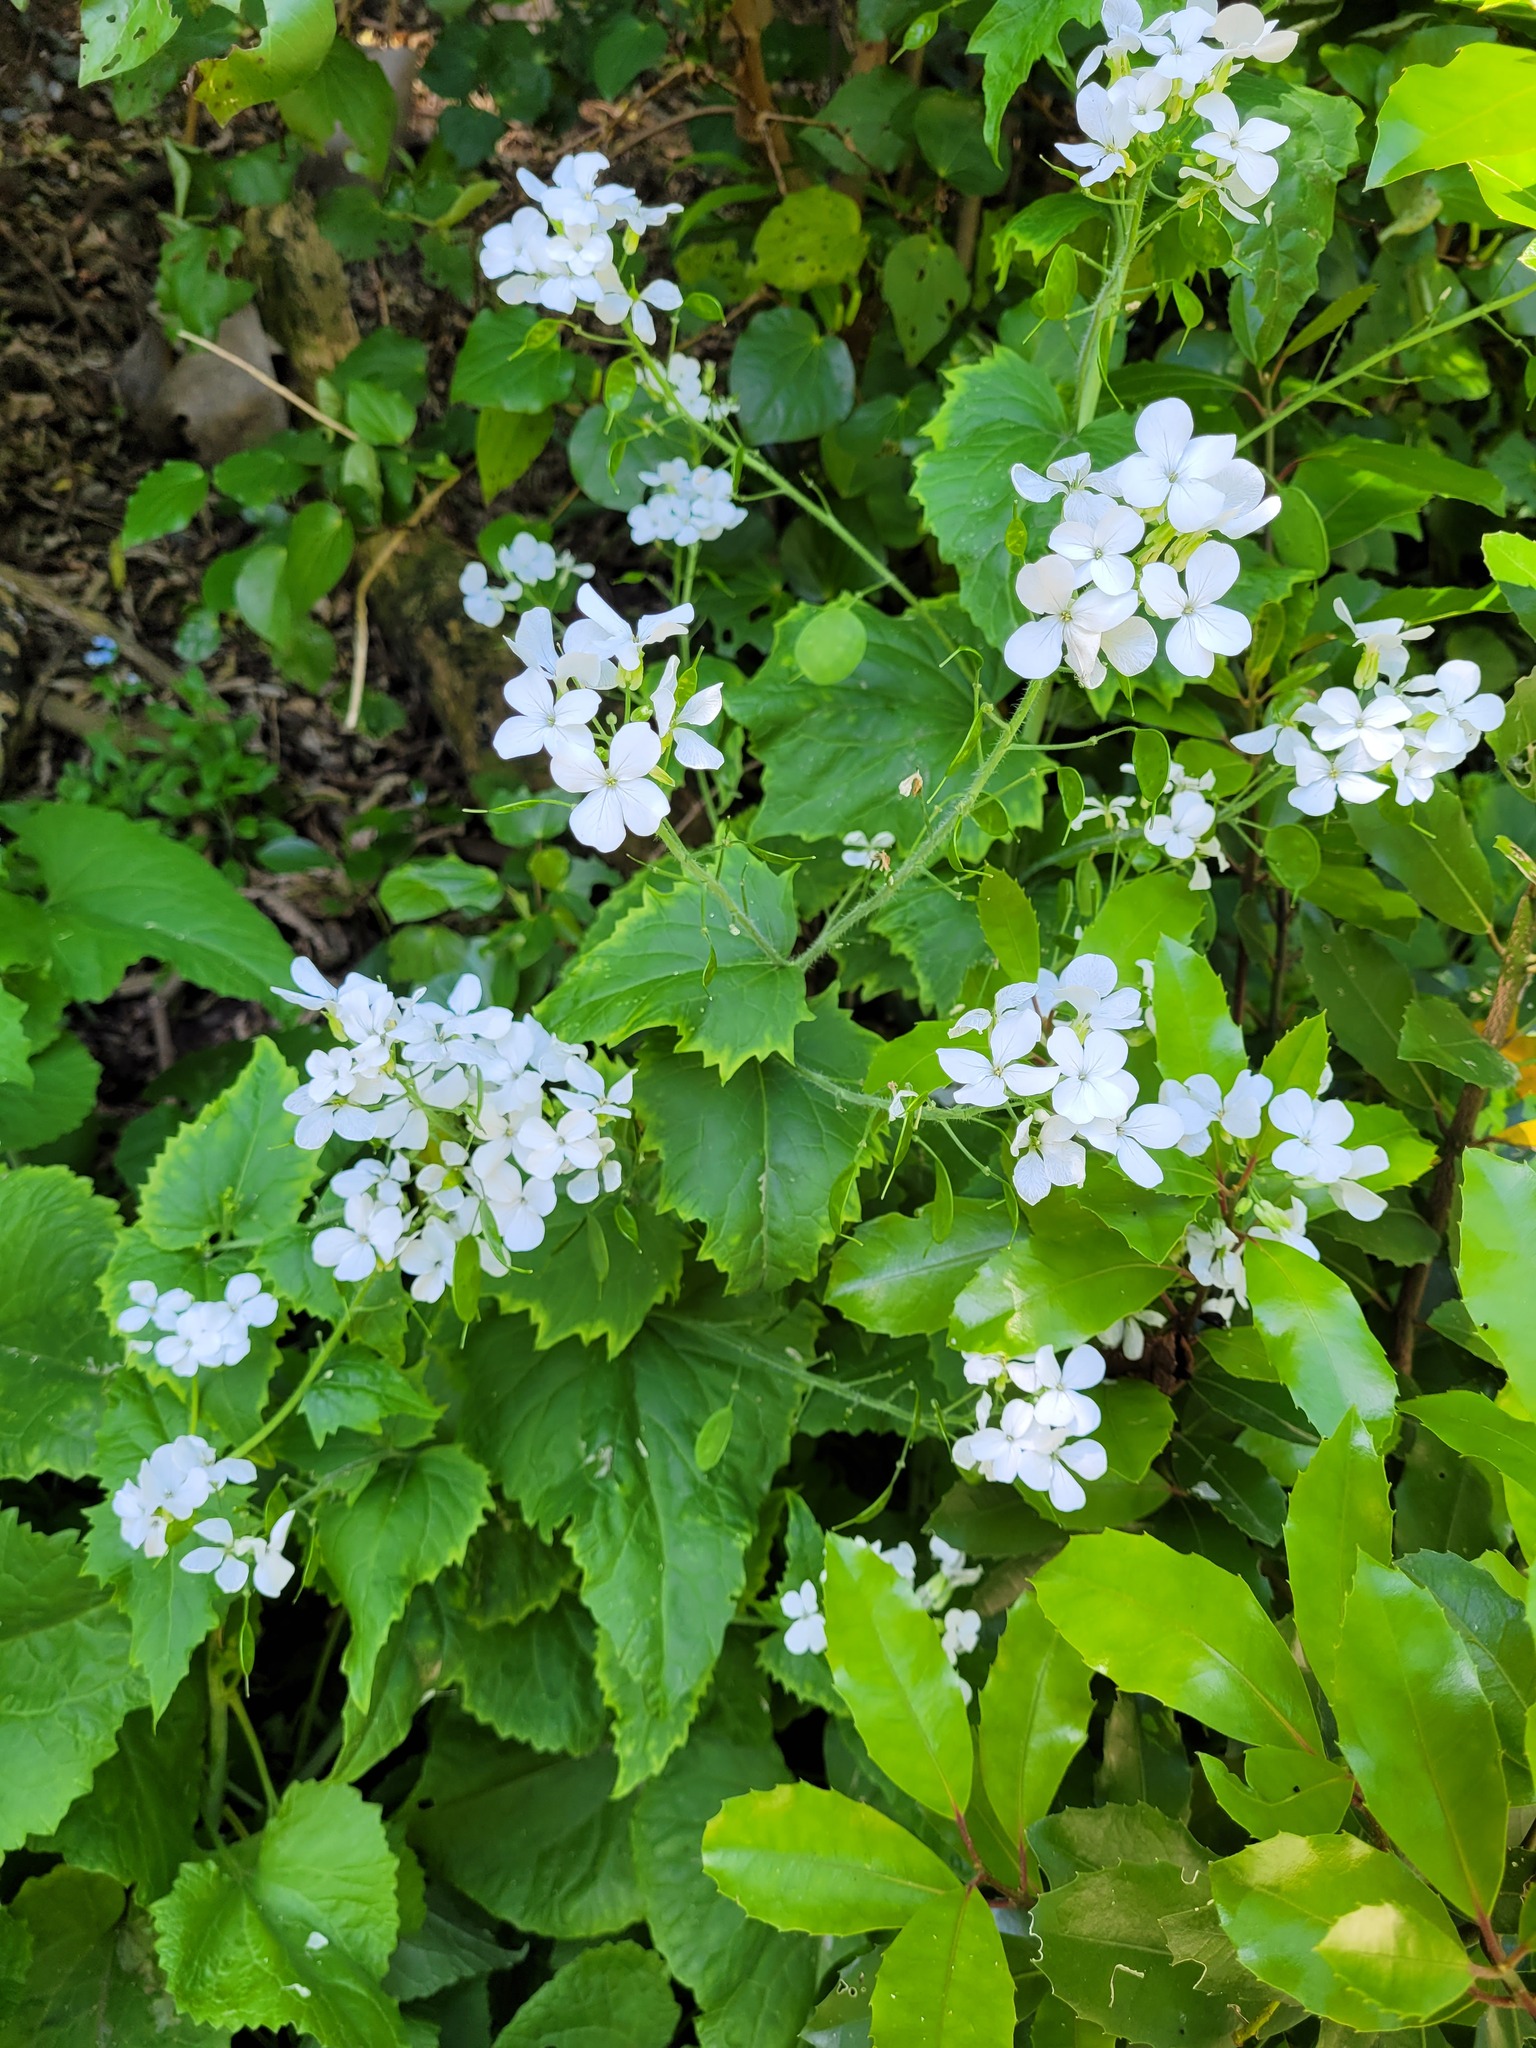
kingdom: Plantae
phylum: Tracheophyta
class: Magnoliopsida
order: Brassicales
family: Brassicaceae
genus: Lunaria
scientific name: Lunaria annua
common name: Honesty
